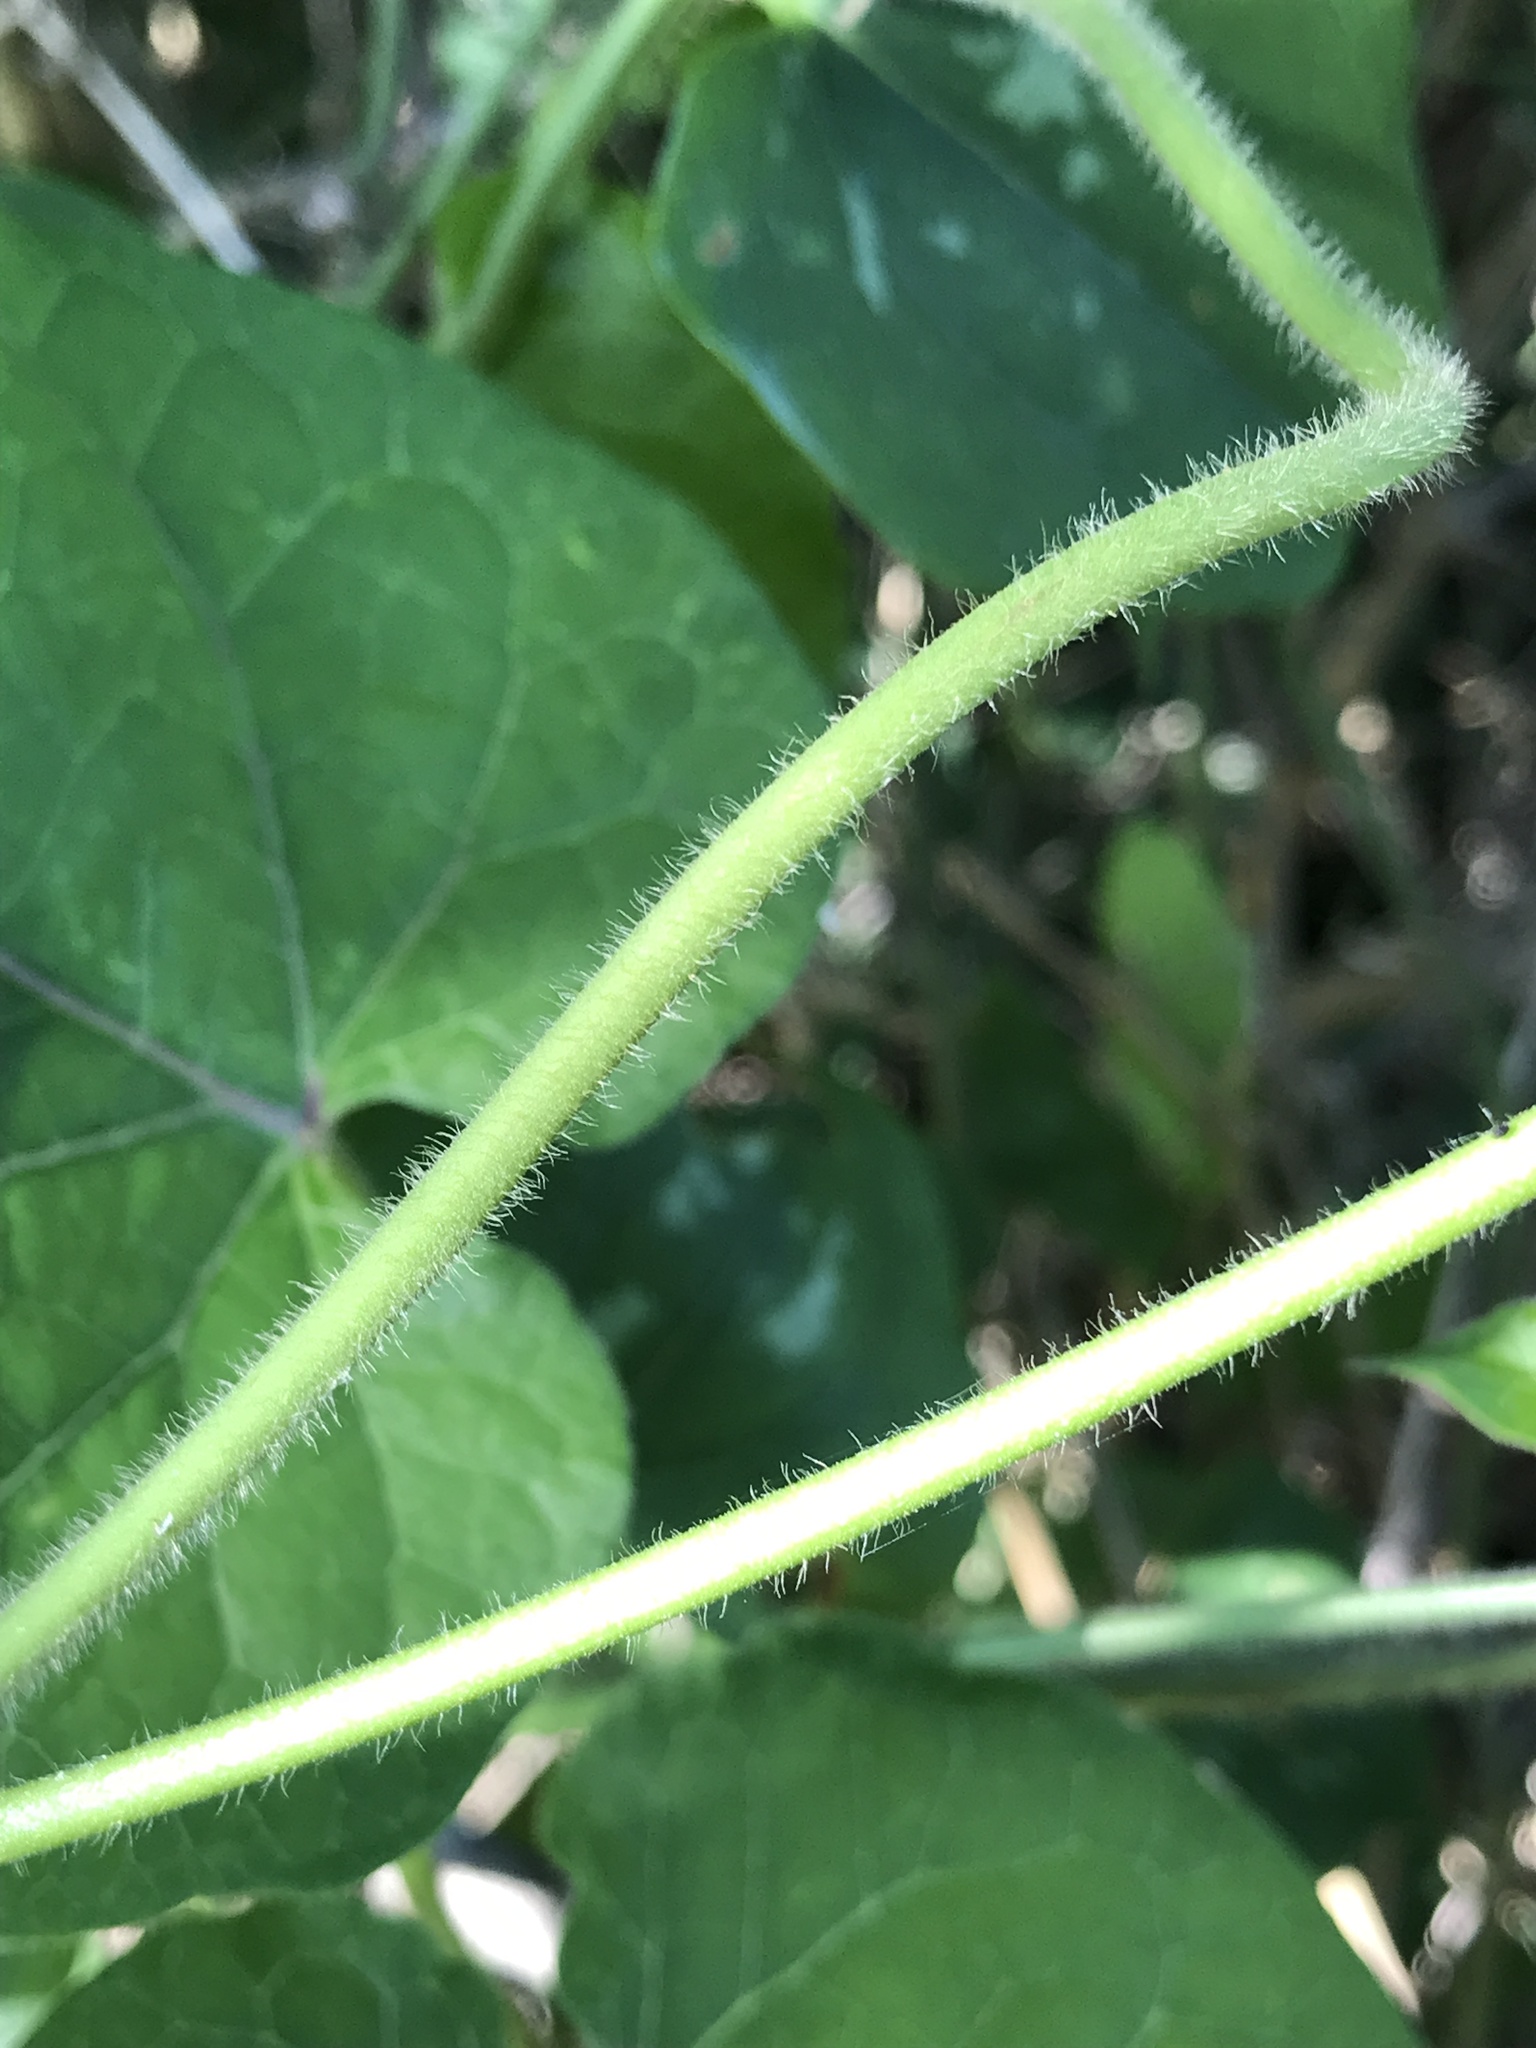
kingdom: Plantae
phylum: Tracheophyta
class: Magnoliopsida
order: Gentianales
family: Apocynaceae
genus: Gonolobus
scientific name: Gonolobus suberosus
